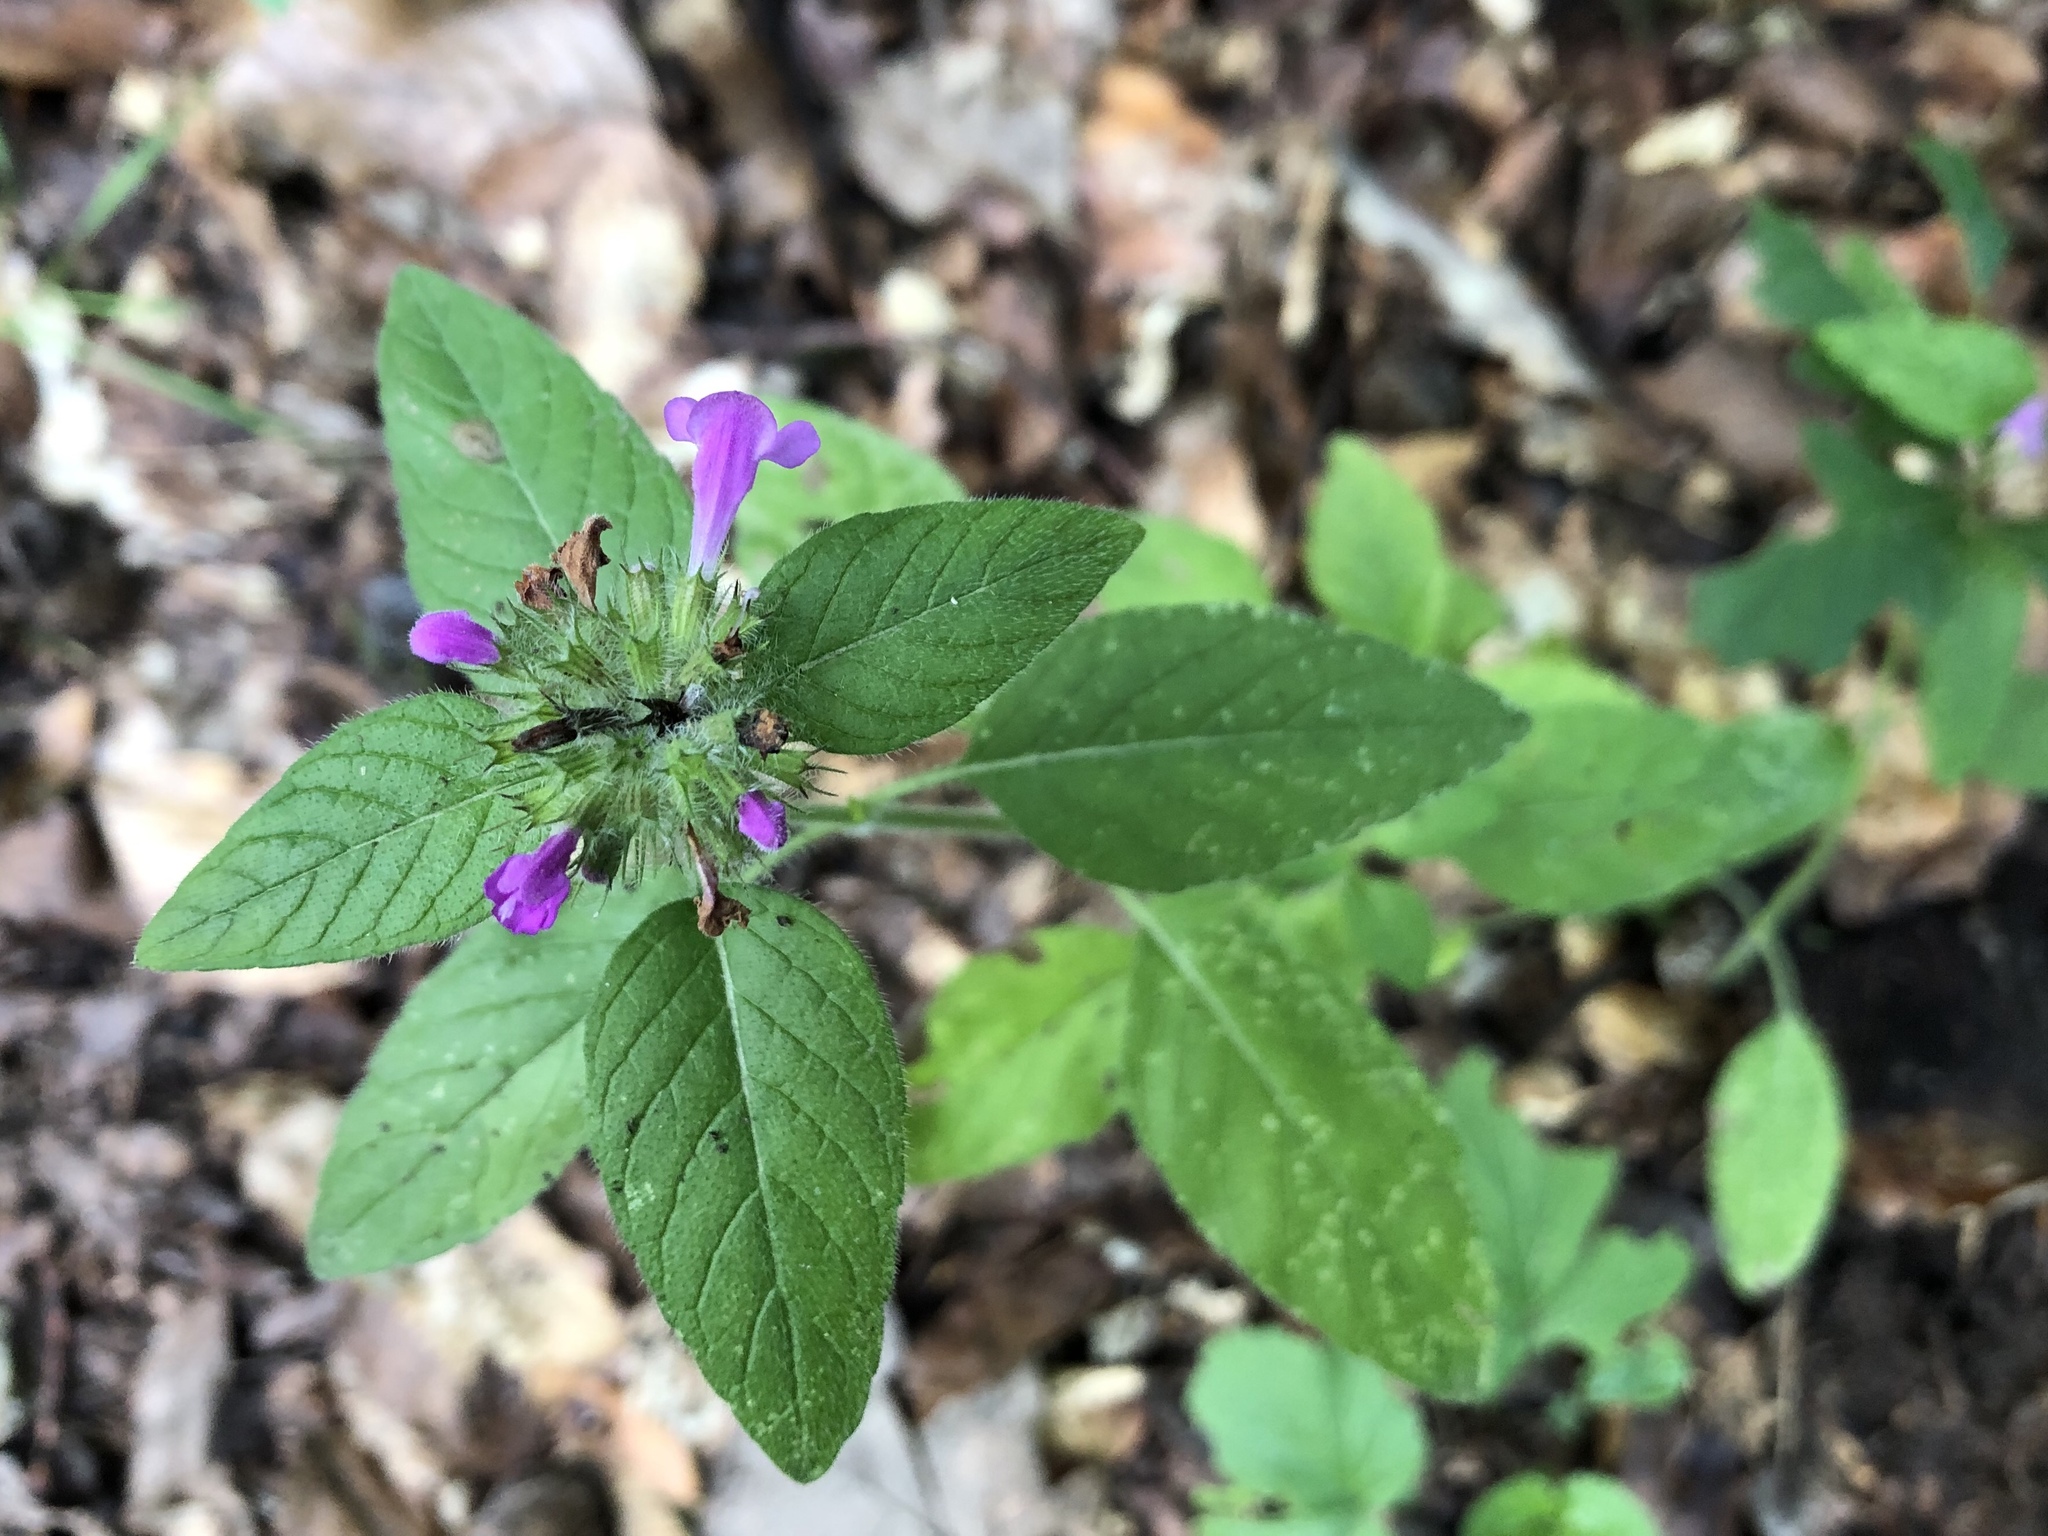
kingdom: Plantae
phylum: Tracheophyta
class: Magnoliopsida
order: Lamiales
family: Lamiaceae
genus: Clinopodium
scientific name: Clinopodium vulgare
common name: Wild basil
